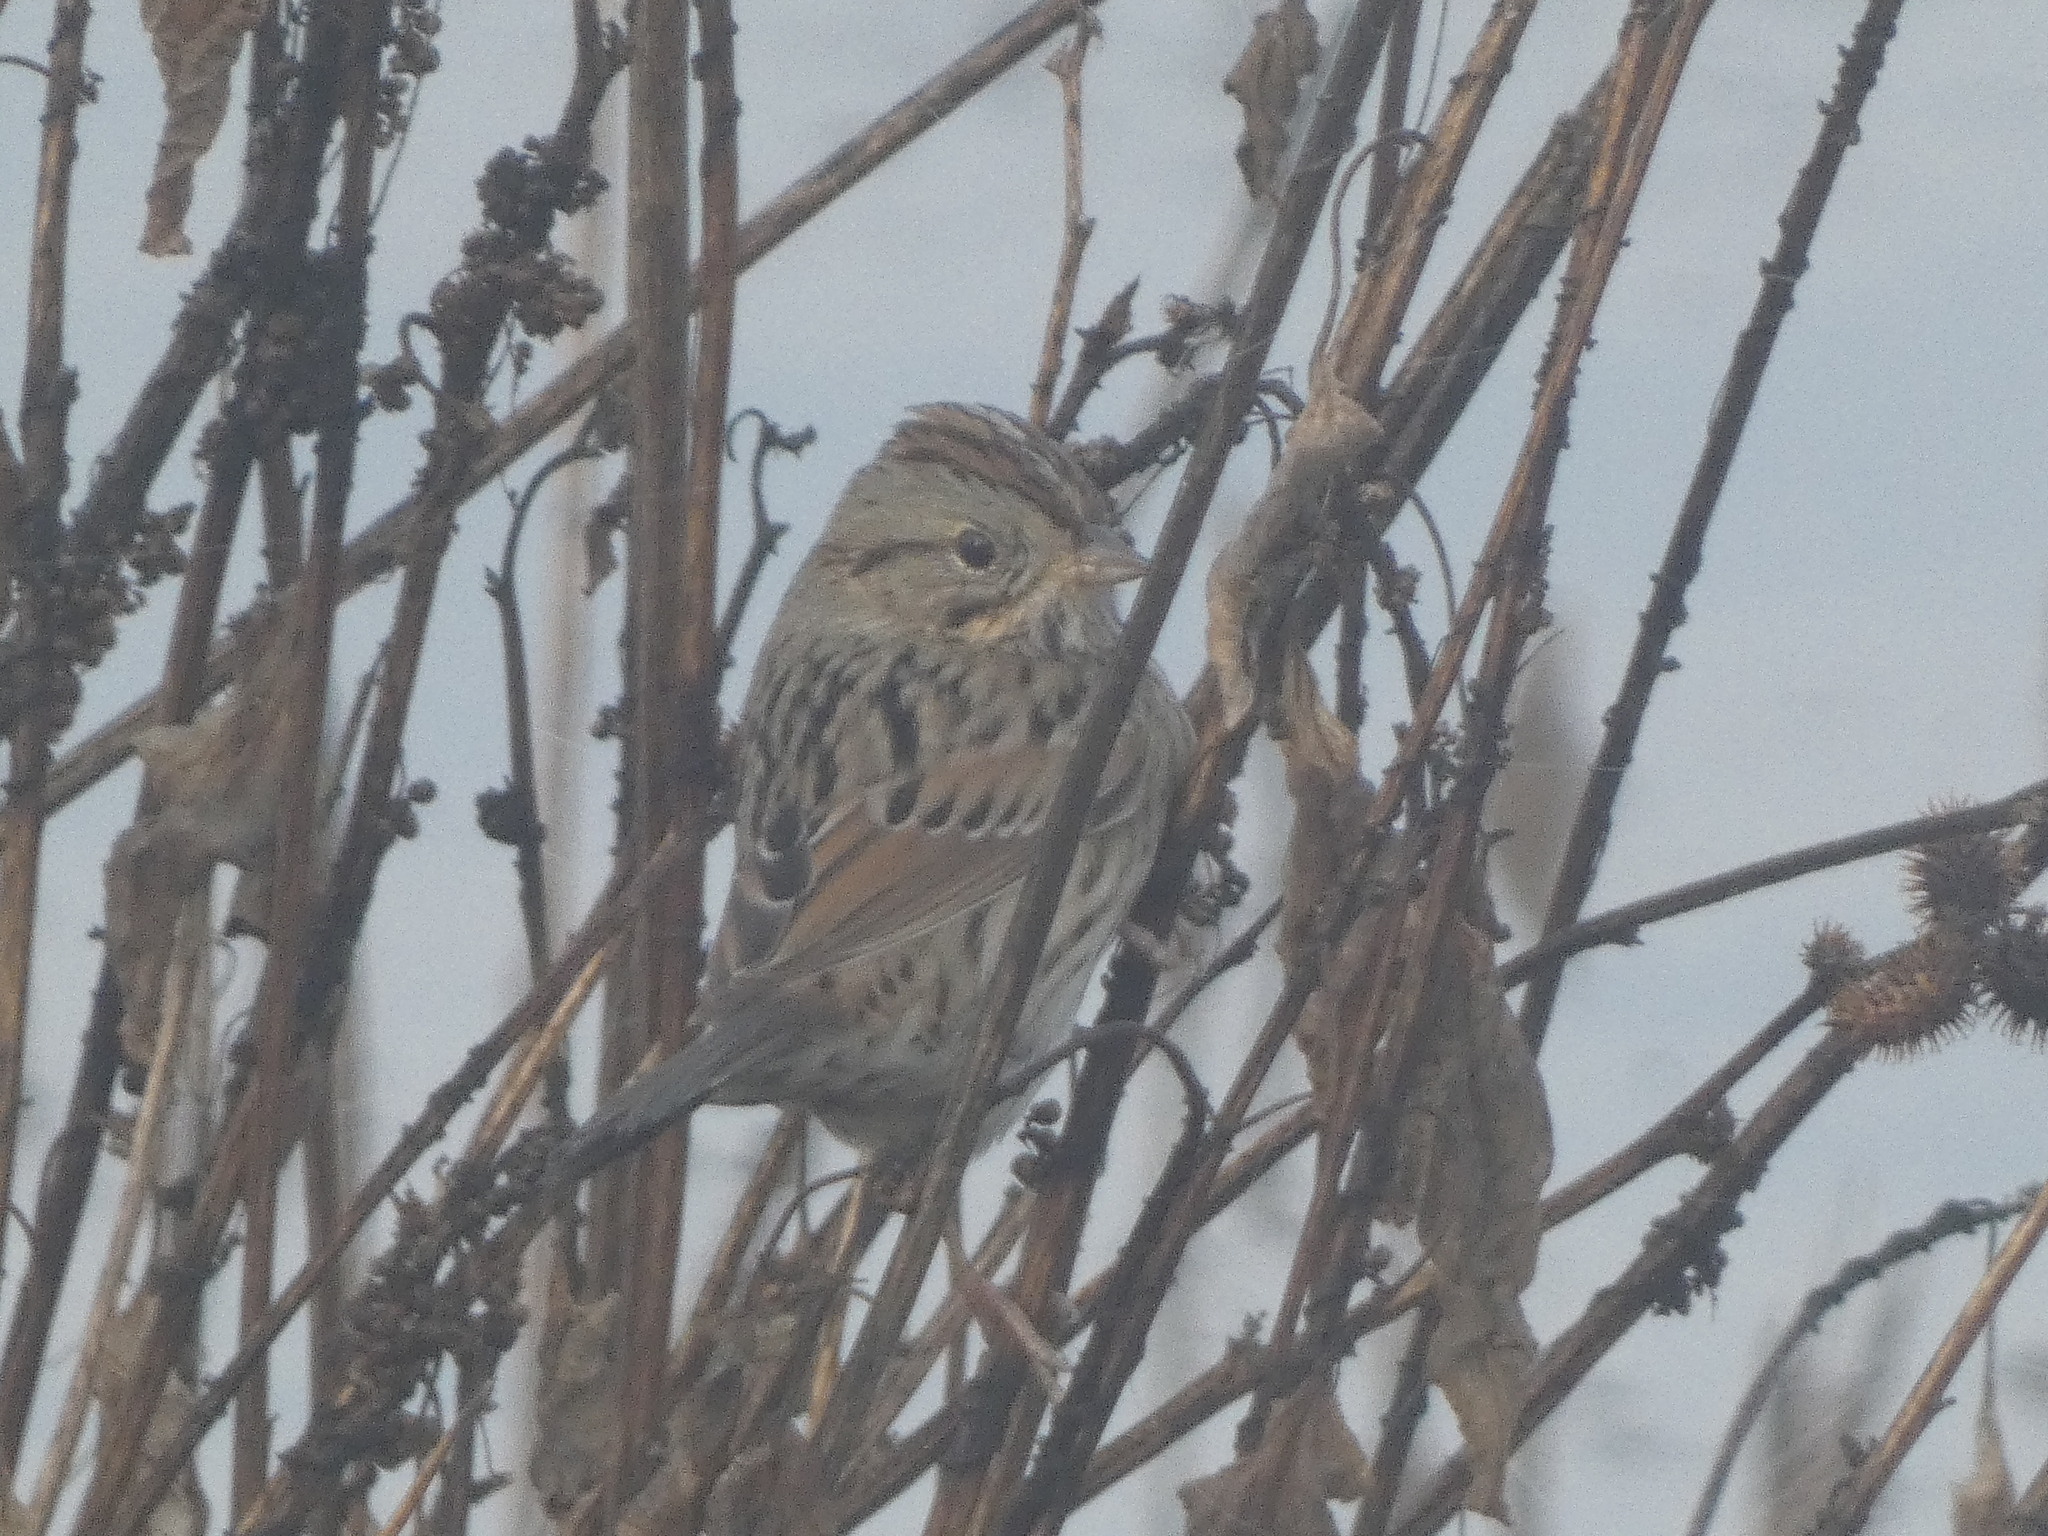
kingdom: Animalia
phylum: Chordata
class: Aves
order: Passeriformes
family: Passerellidae
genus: Melospiza
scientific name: Melospiza lincolnii
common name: Lincoln's sparrow
